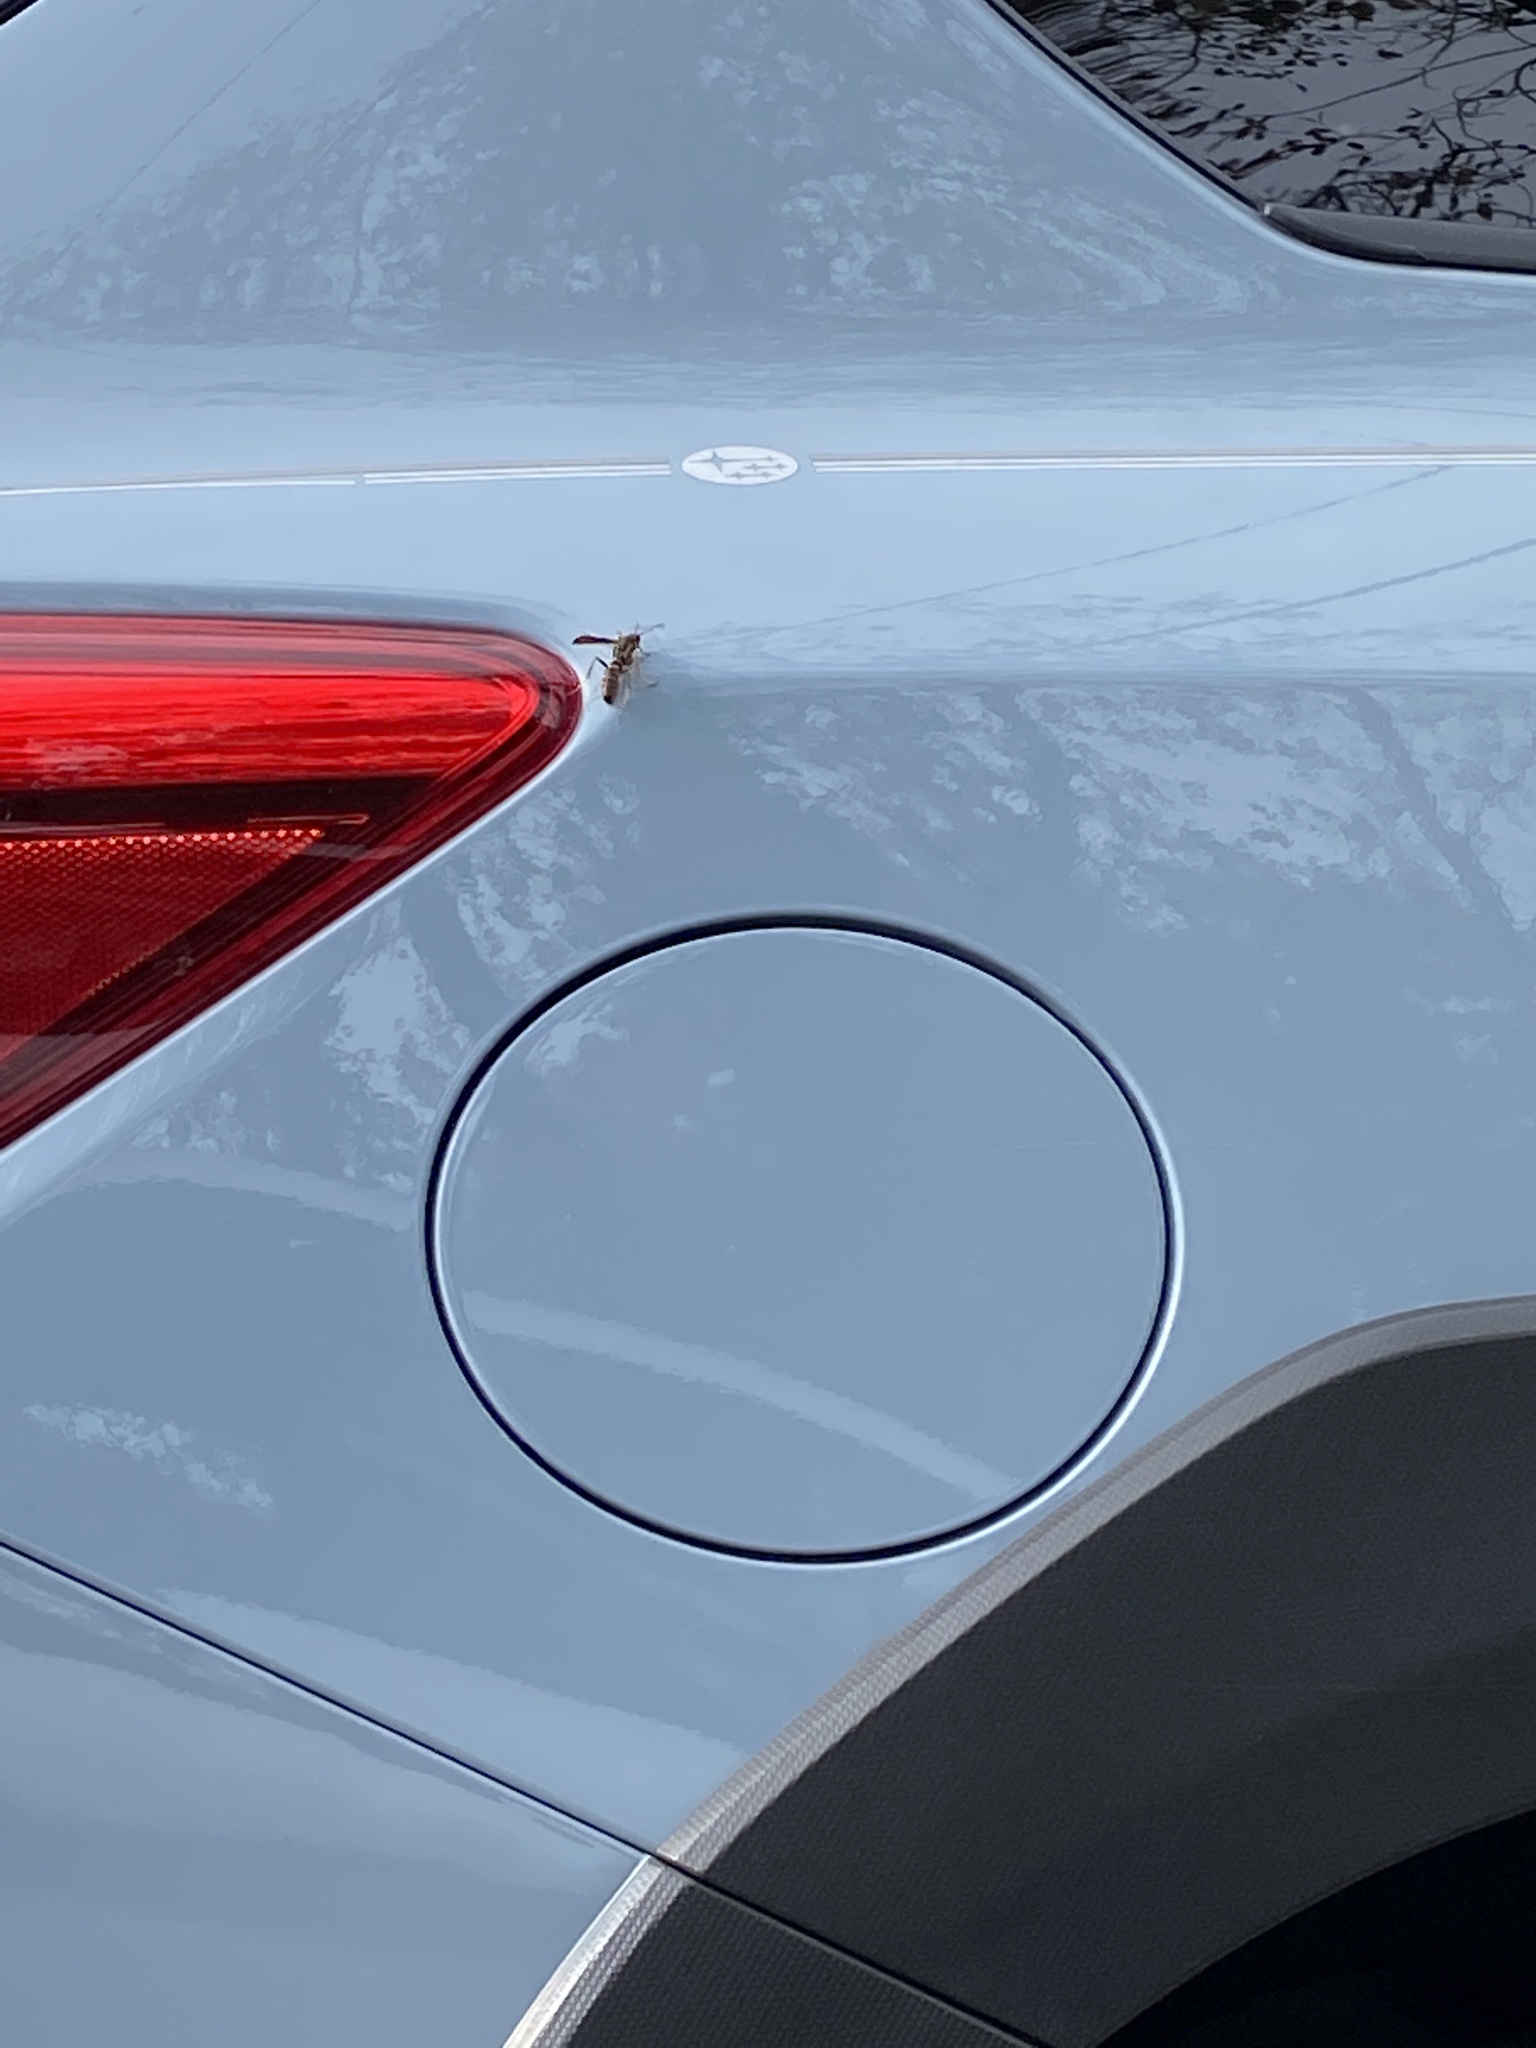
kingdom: Animalia
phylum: Arthropoda
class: Insecta
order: Hymenoptera
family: Vespidae
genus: Fuscopolistes
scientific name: Fuscopolistes
